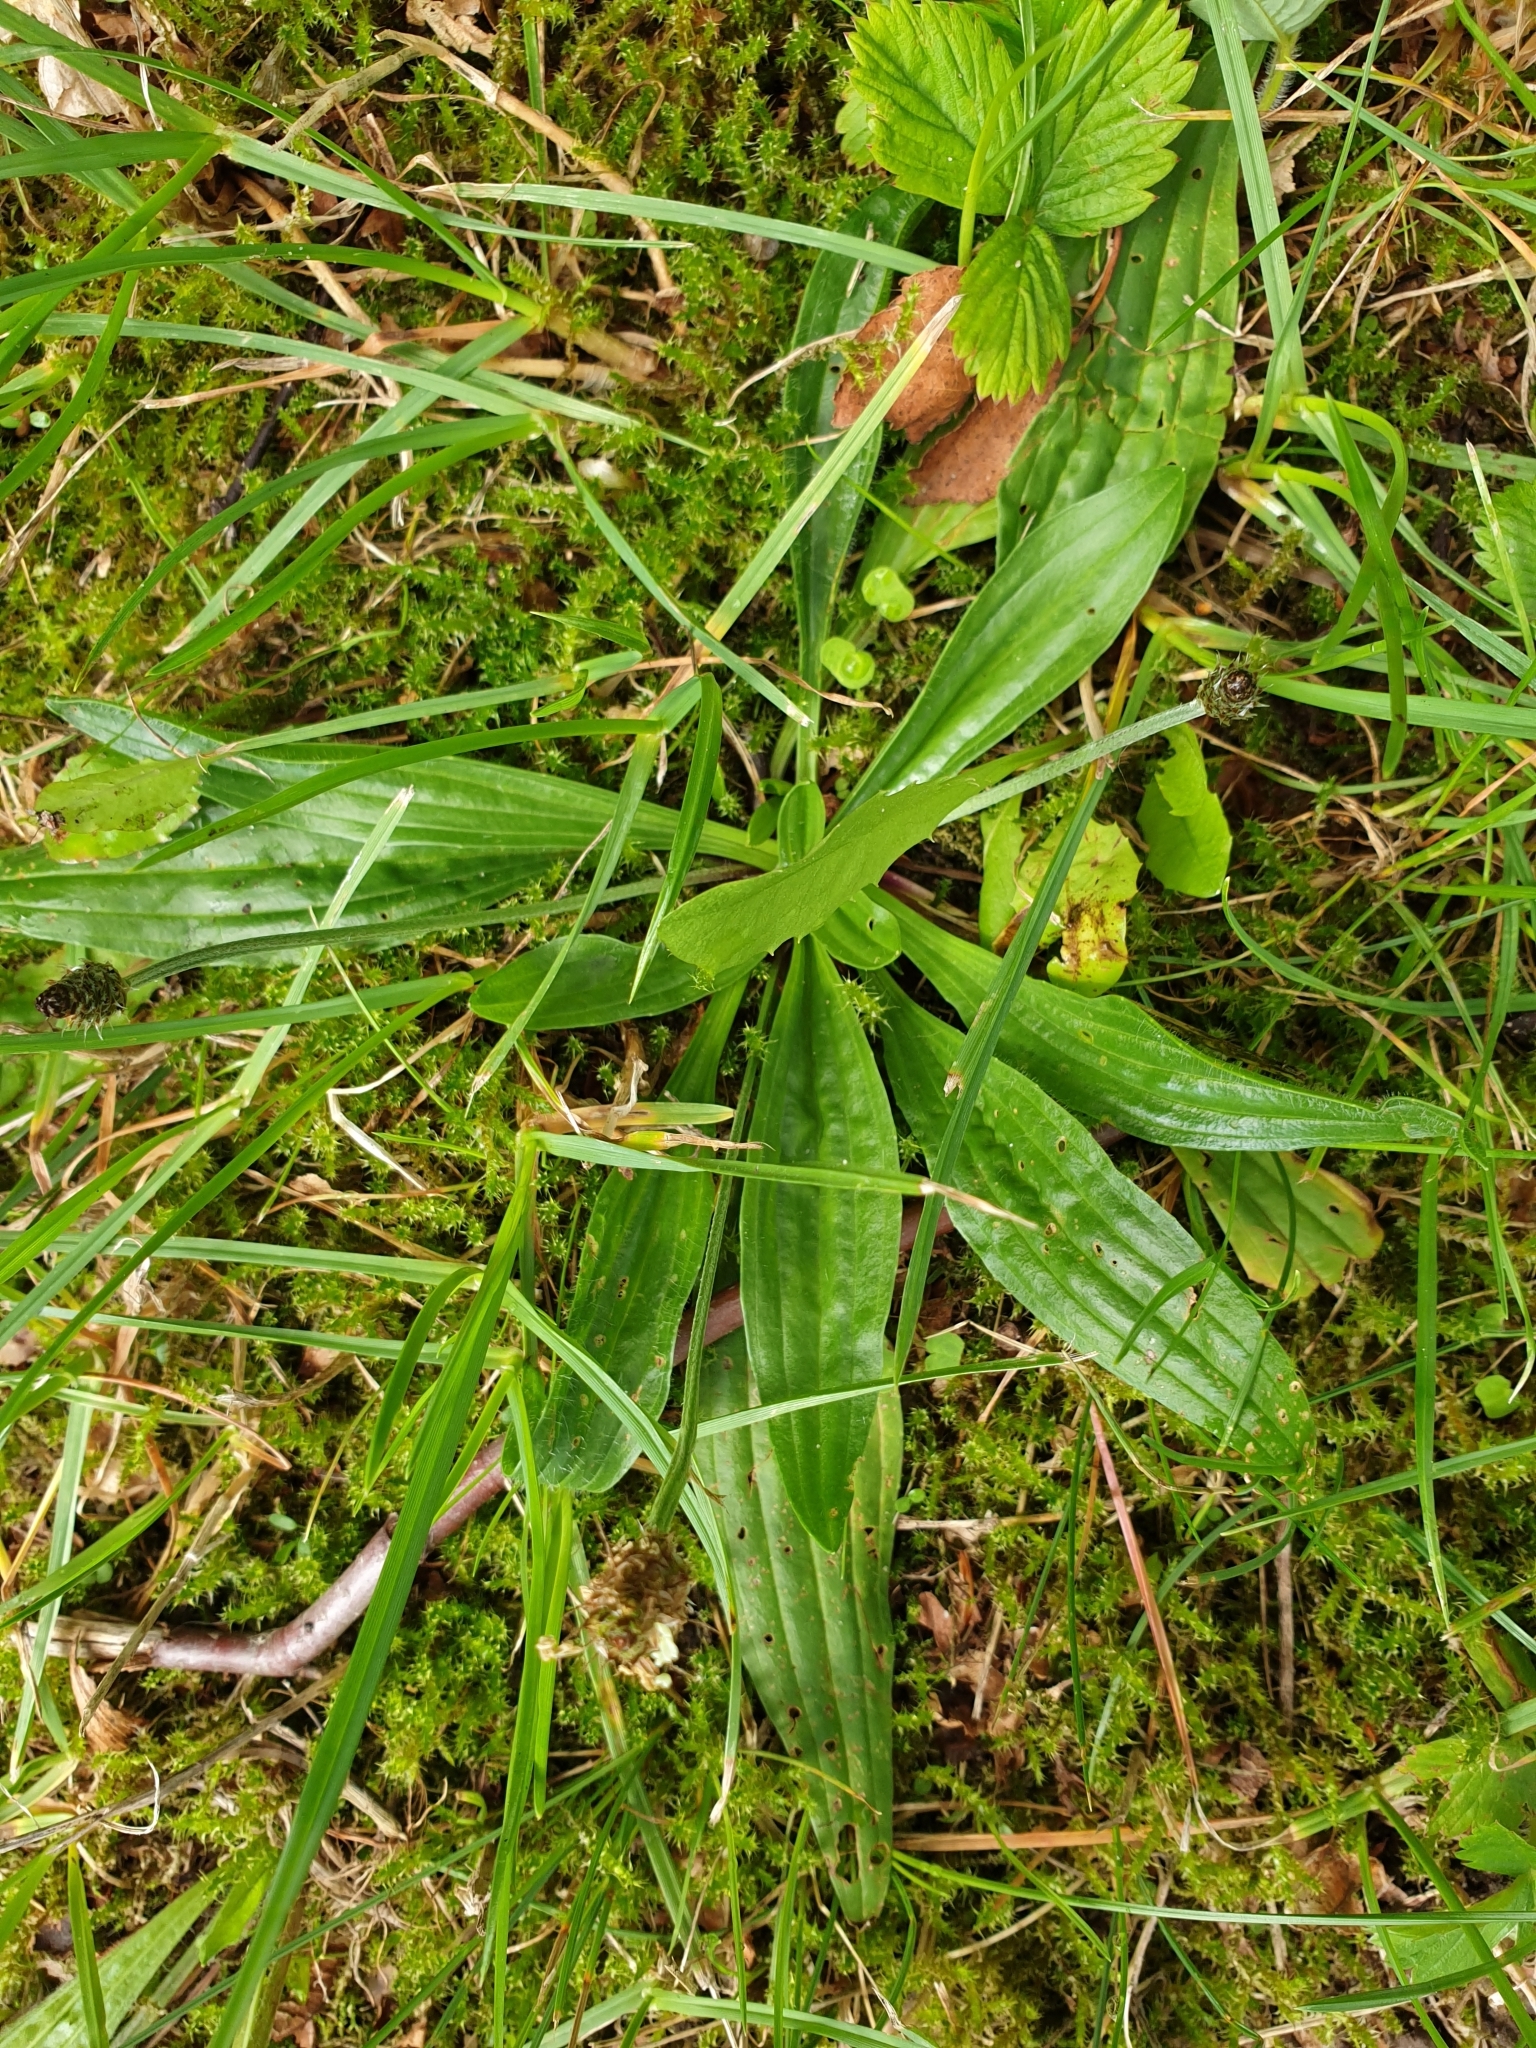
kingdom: Plantae
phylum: Tracheophyta
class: Magnoliopsida
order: Lamiales
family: Plantaginaceae
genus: Plantago
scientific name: Plantago lanceolata
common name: Ribwort plantain
